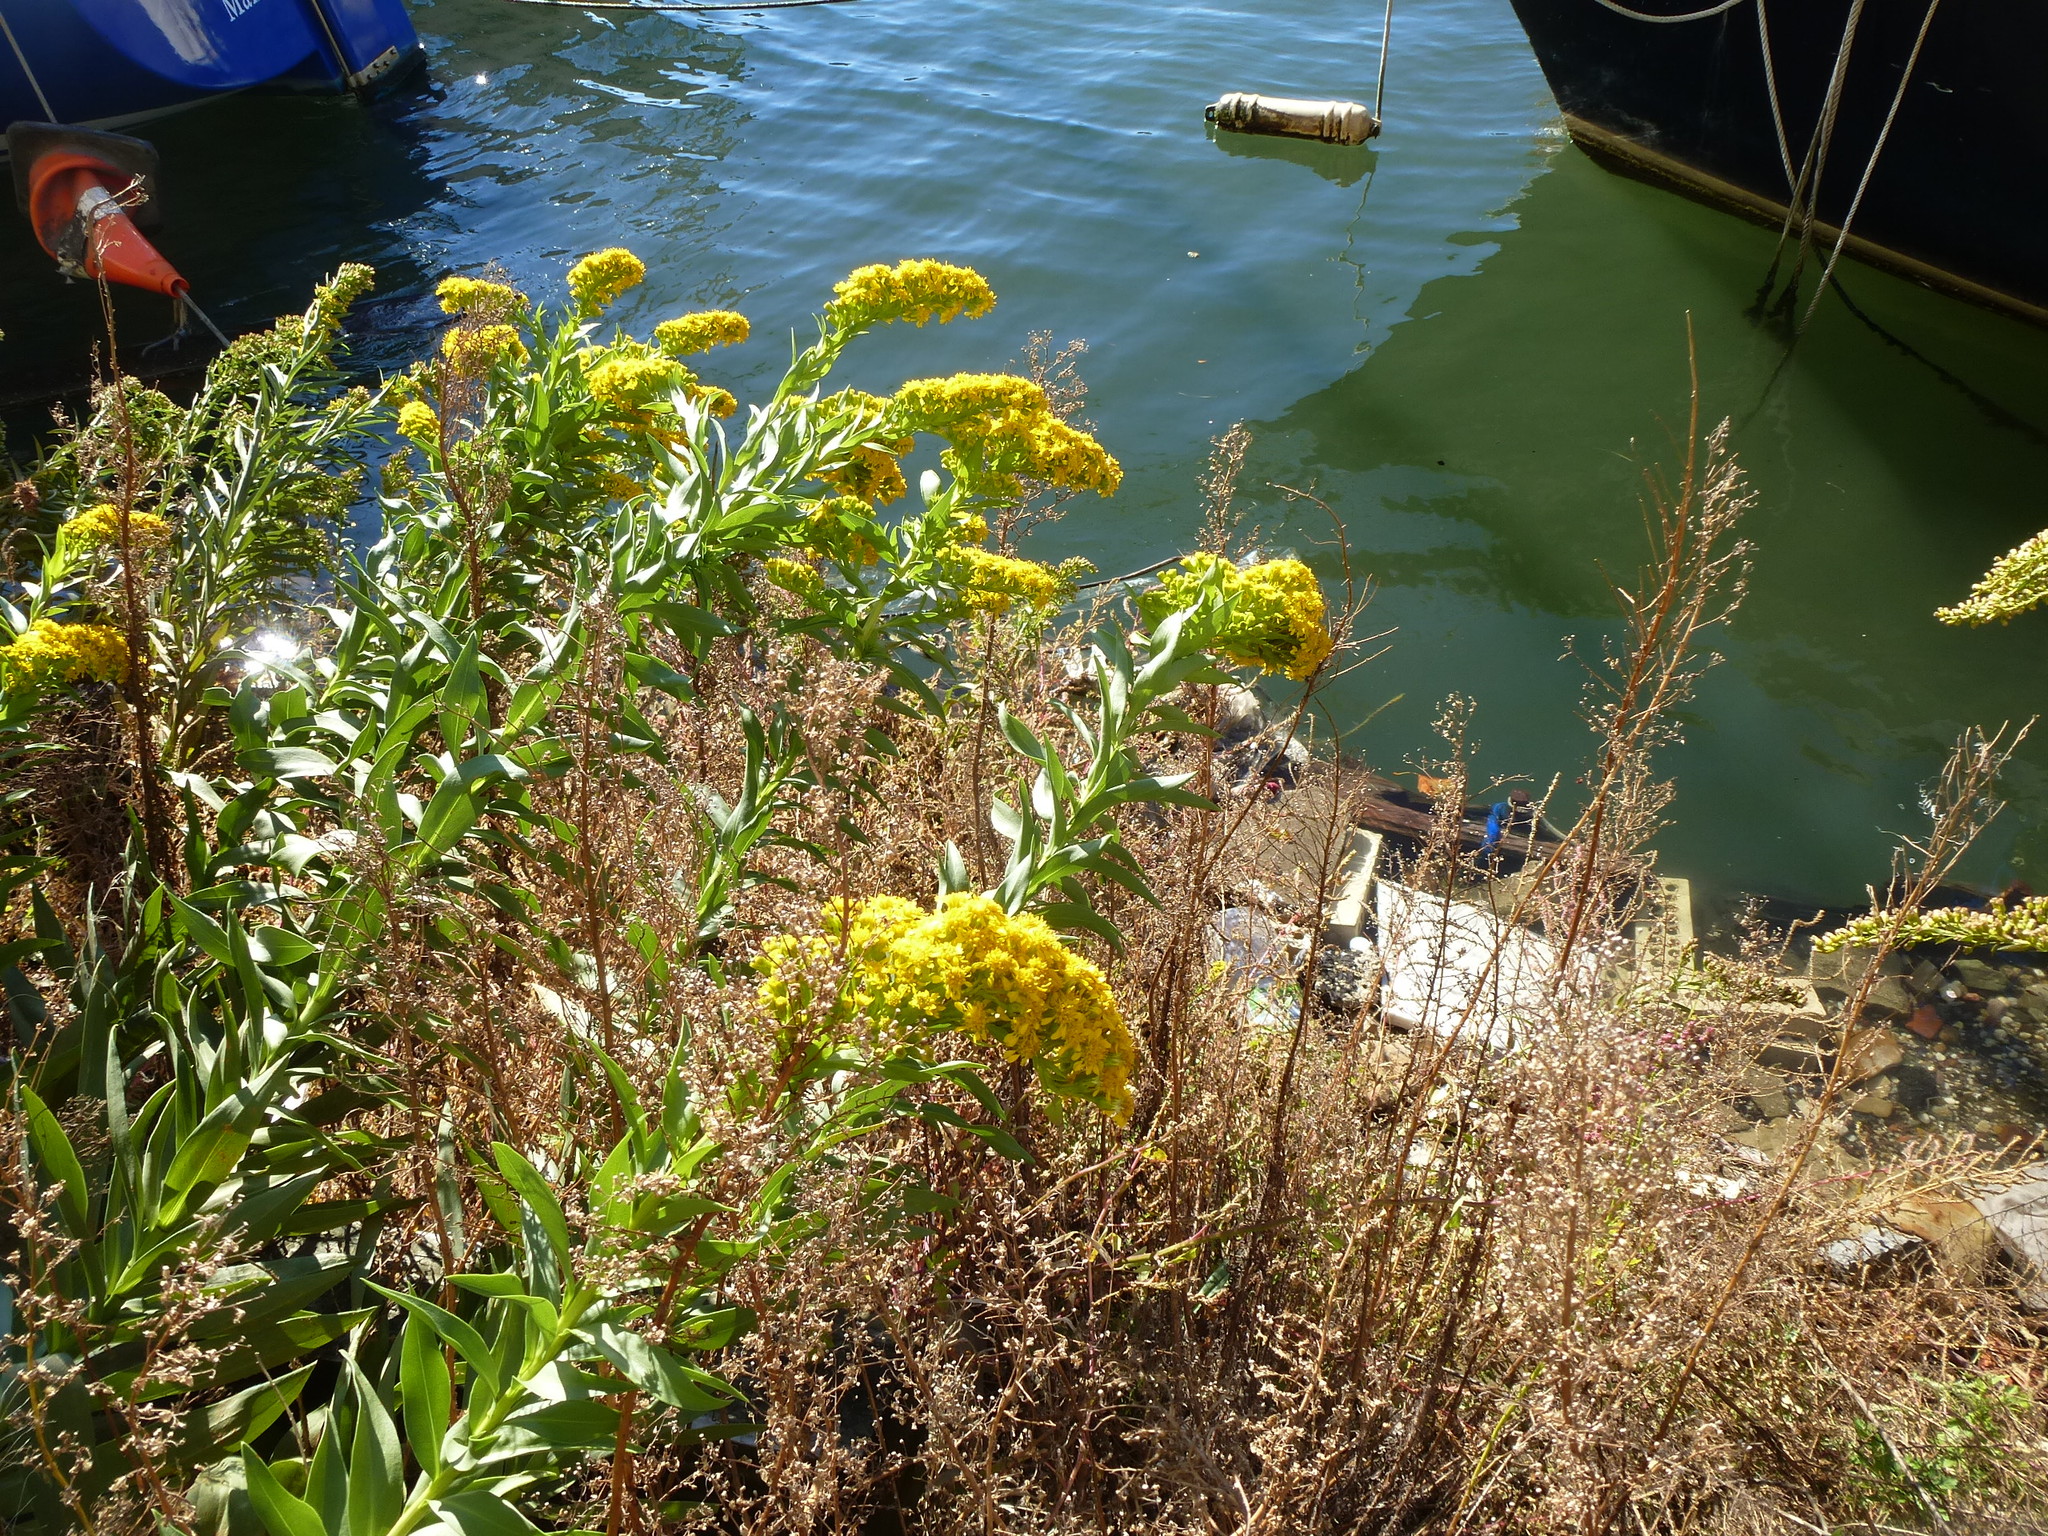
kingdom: Plantae
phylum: Tracheophyta
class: Magnoliopsida
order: Asterales
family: Asteraceae
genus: Solidago
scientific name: Solidago sempervirens
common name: Salt-marsh goldenrod
